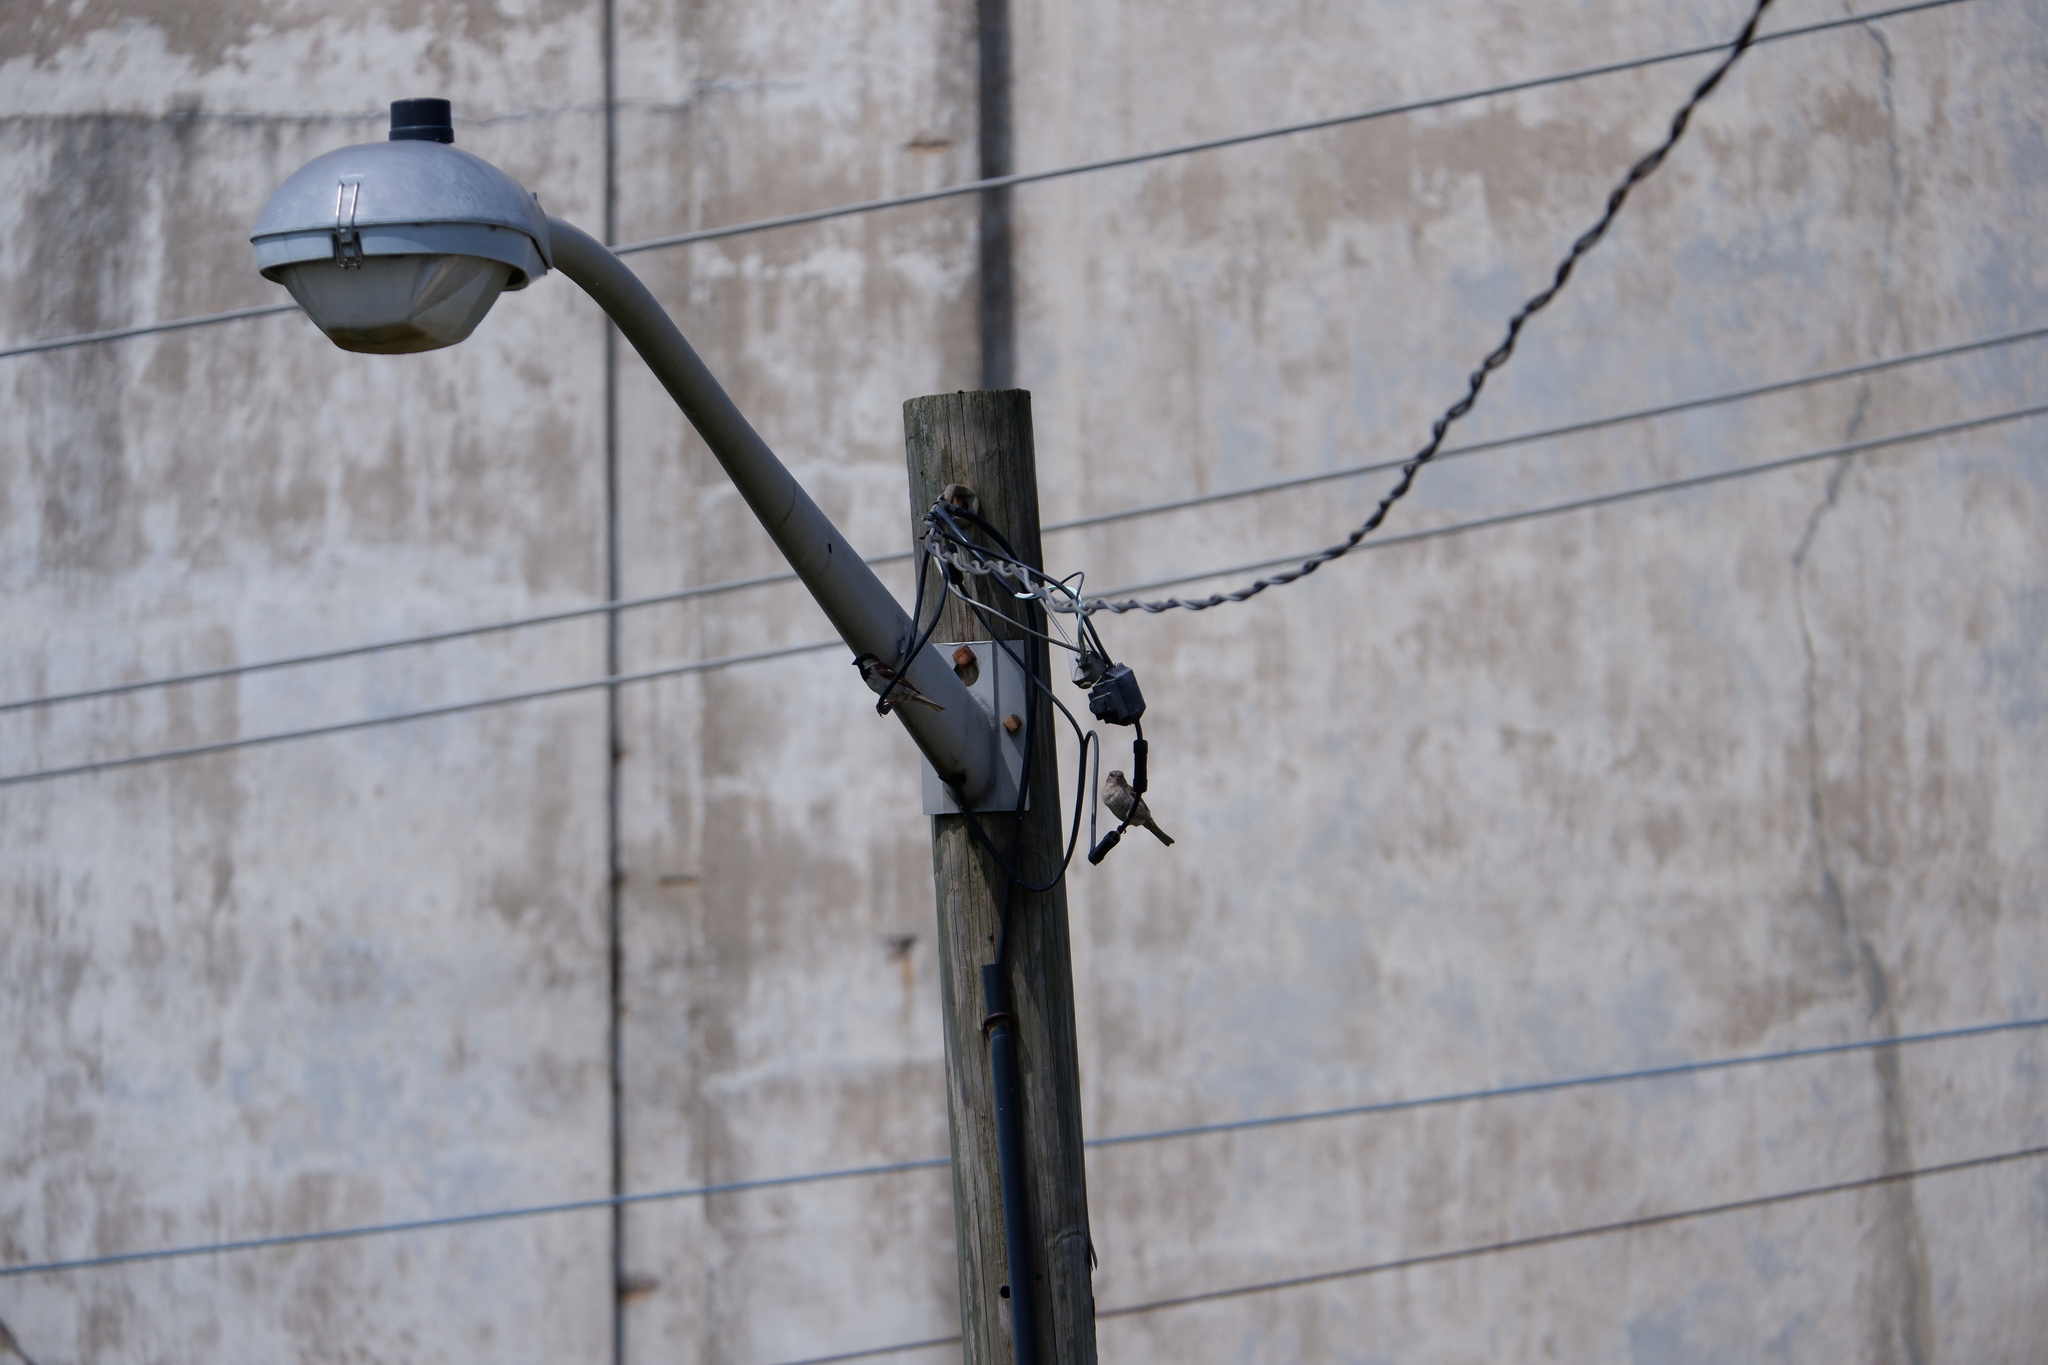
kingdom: Animalia
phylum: Chordata
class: Aves
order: Passeriformes
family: Passeridae
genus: Passer
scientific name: Passer domesticus
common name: House sparrow
